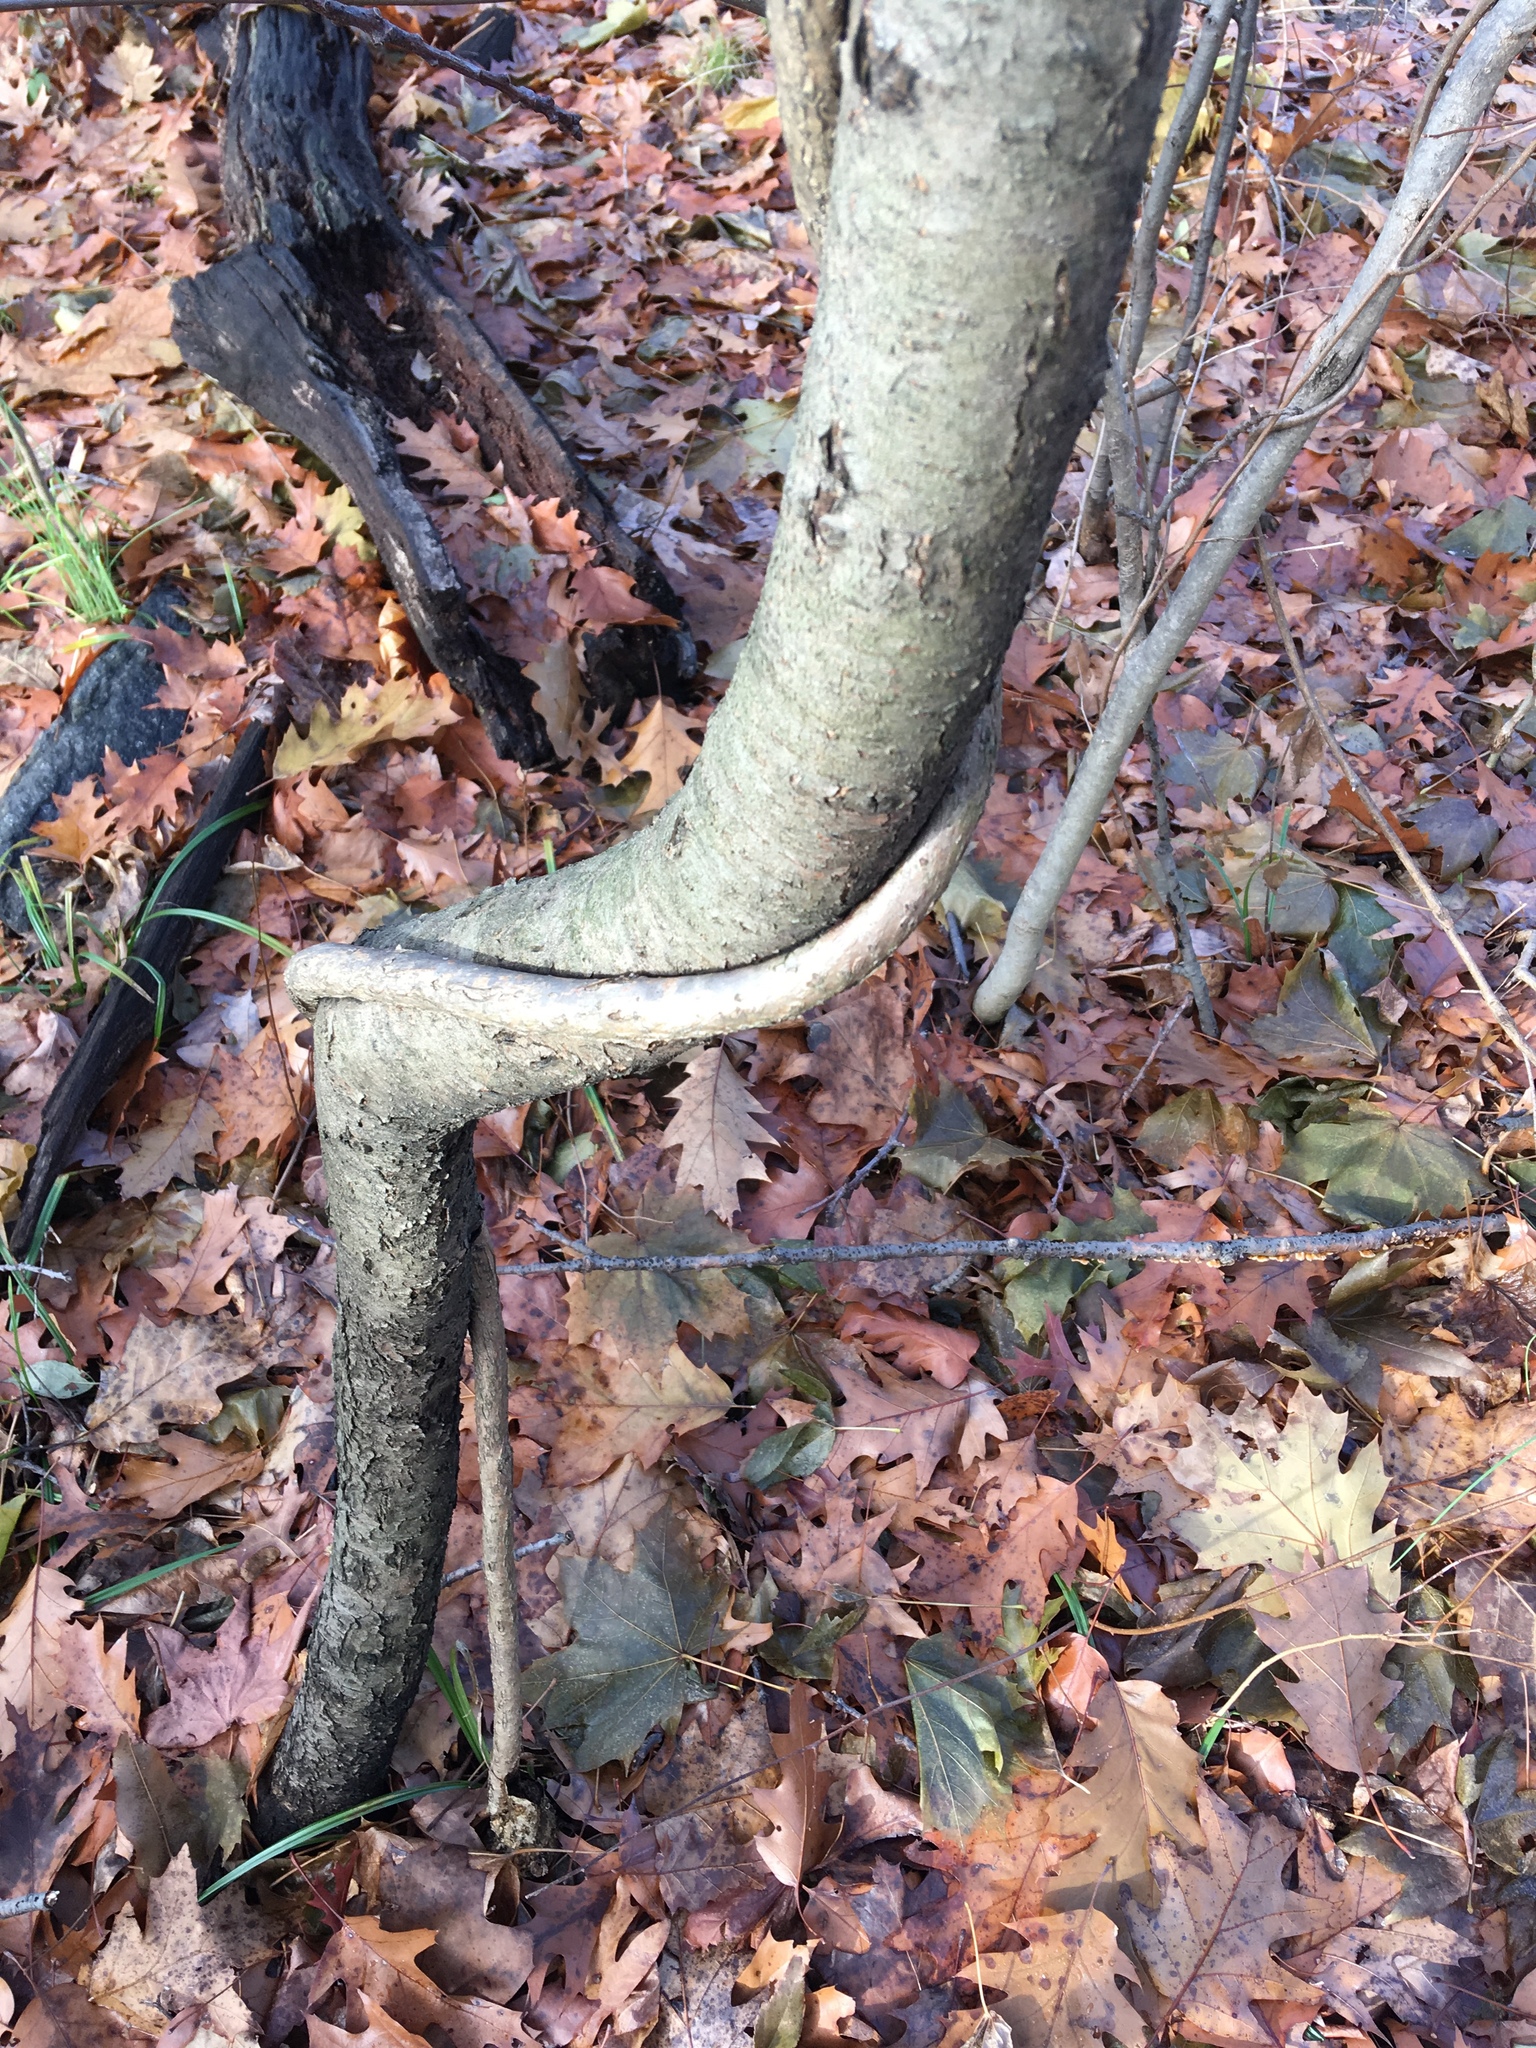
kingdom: Plantae
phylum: Tracheophyta
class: Magnoliopsida
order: Celastrales
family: Celastraceae
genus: Celastrus
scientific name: Celastrus orbiculatus
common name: Oriental bittersweet
